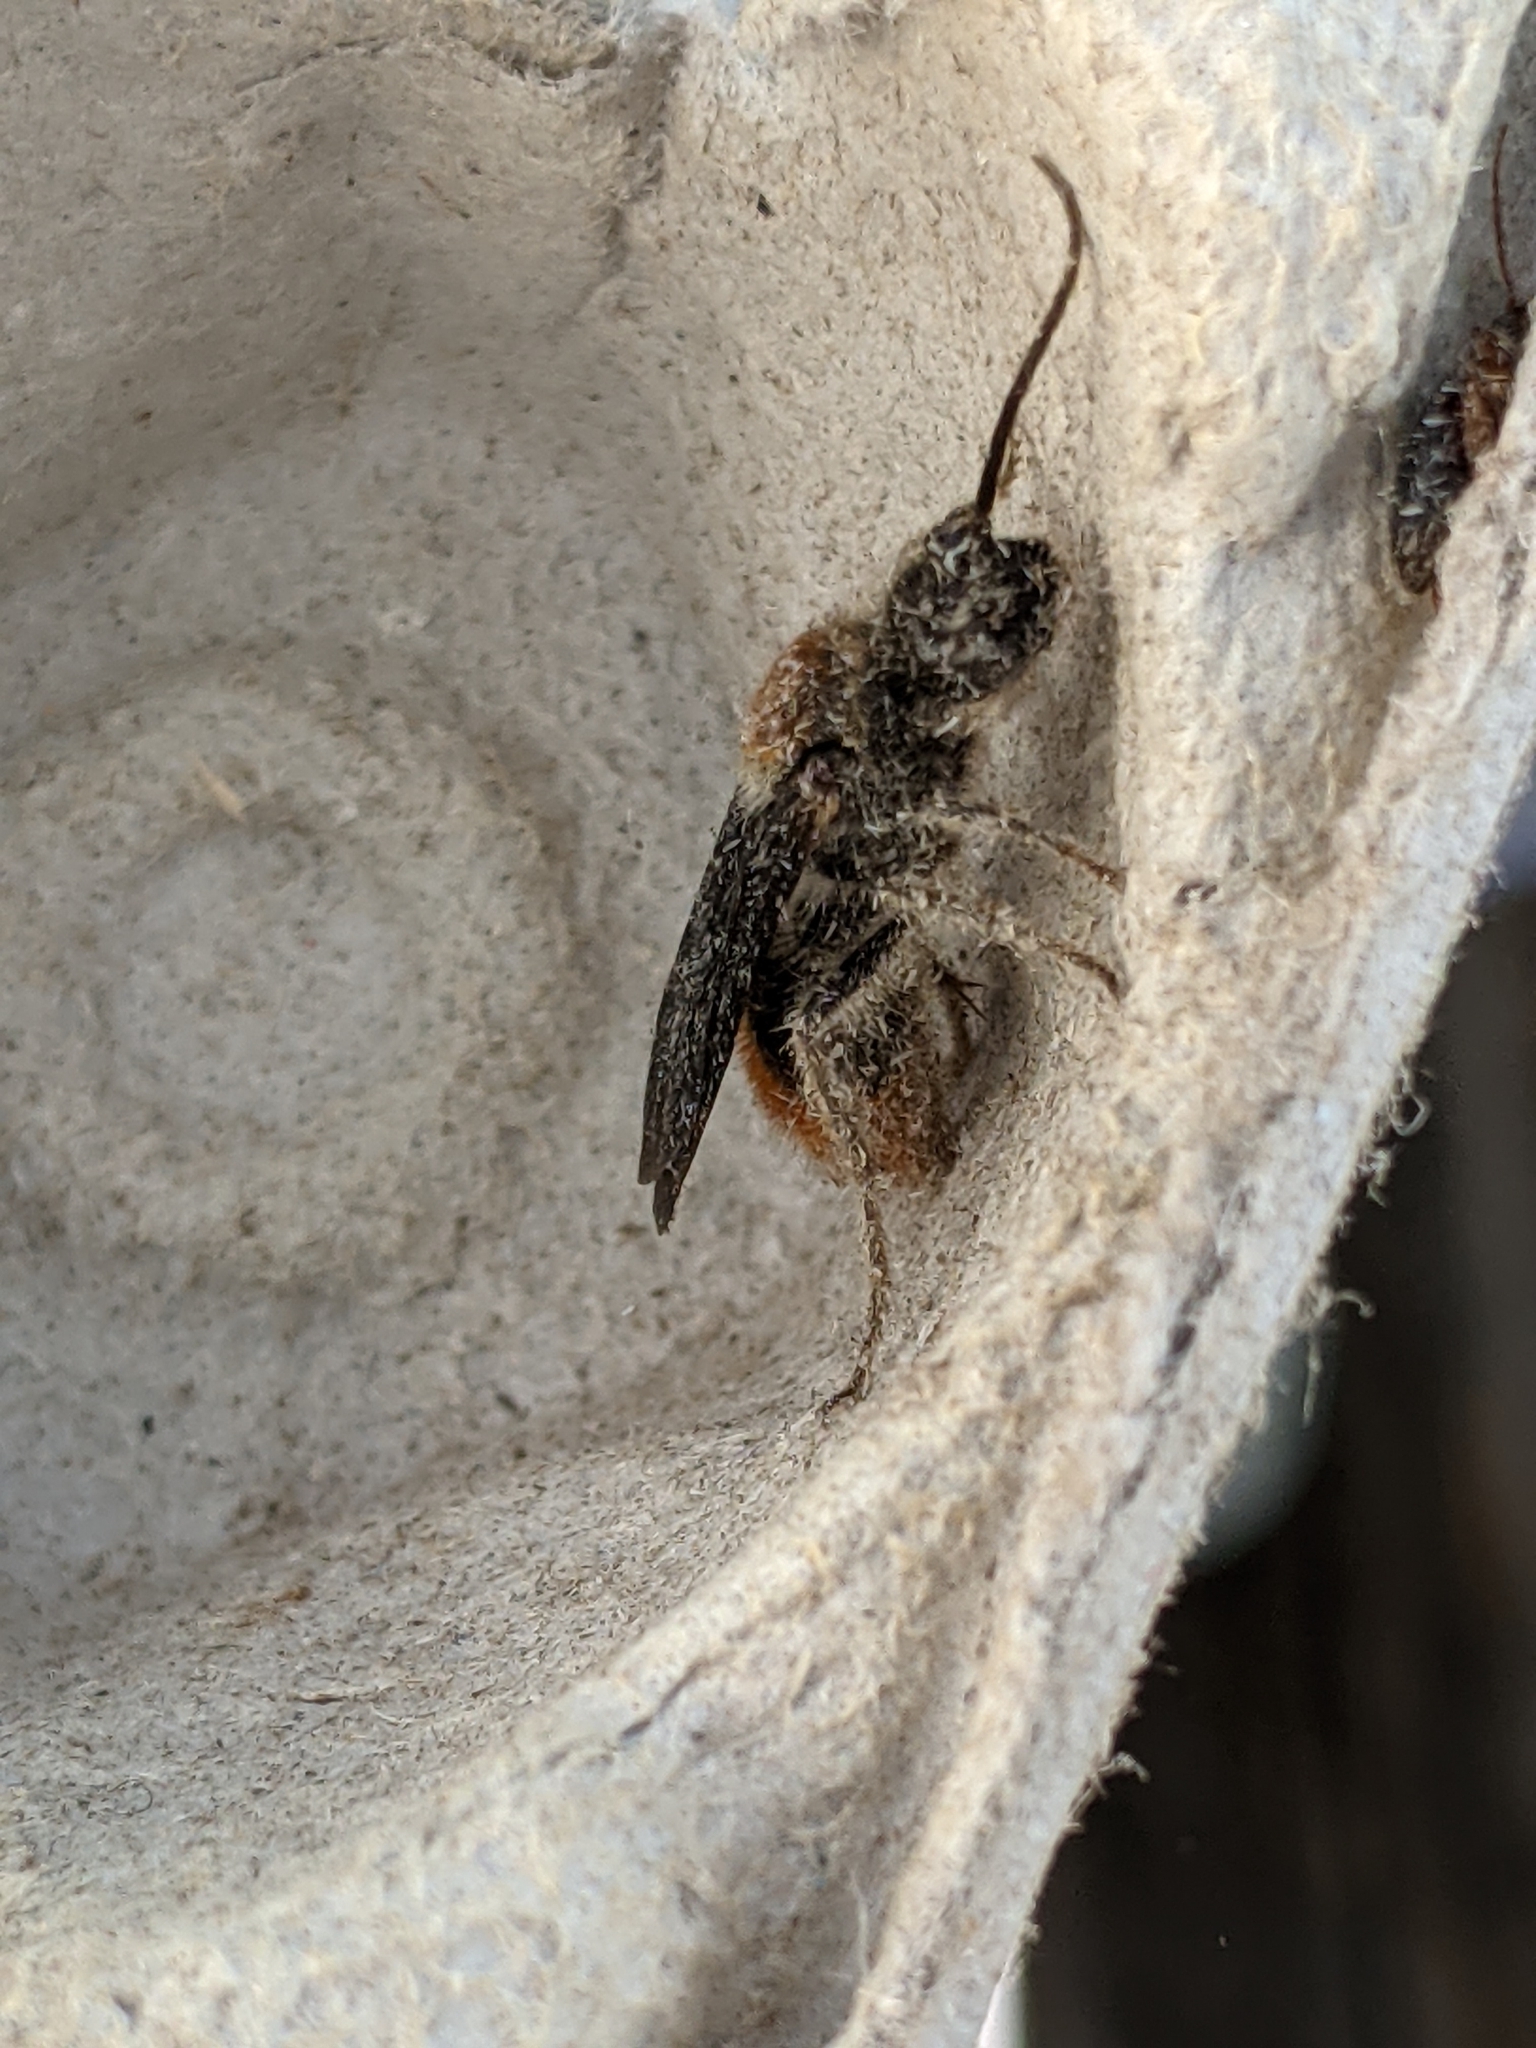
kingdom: Animalia
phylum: Arthropoda
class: Insecta
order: Hymenoptera
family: Mutillidae
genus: Sphaeropthalma
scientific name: Sphaeropthalma marpesia
